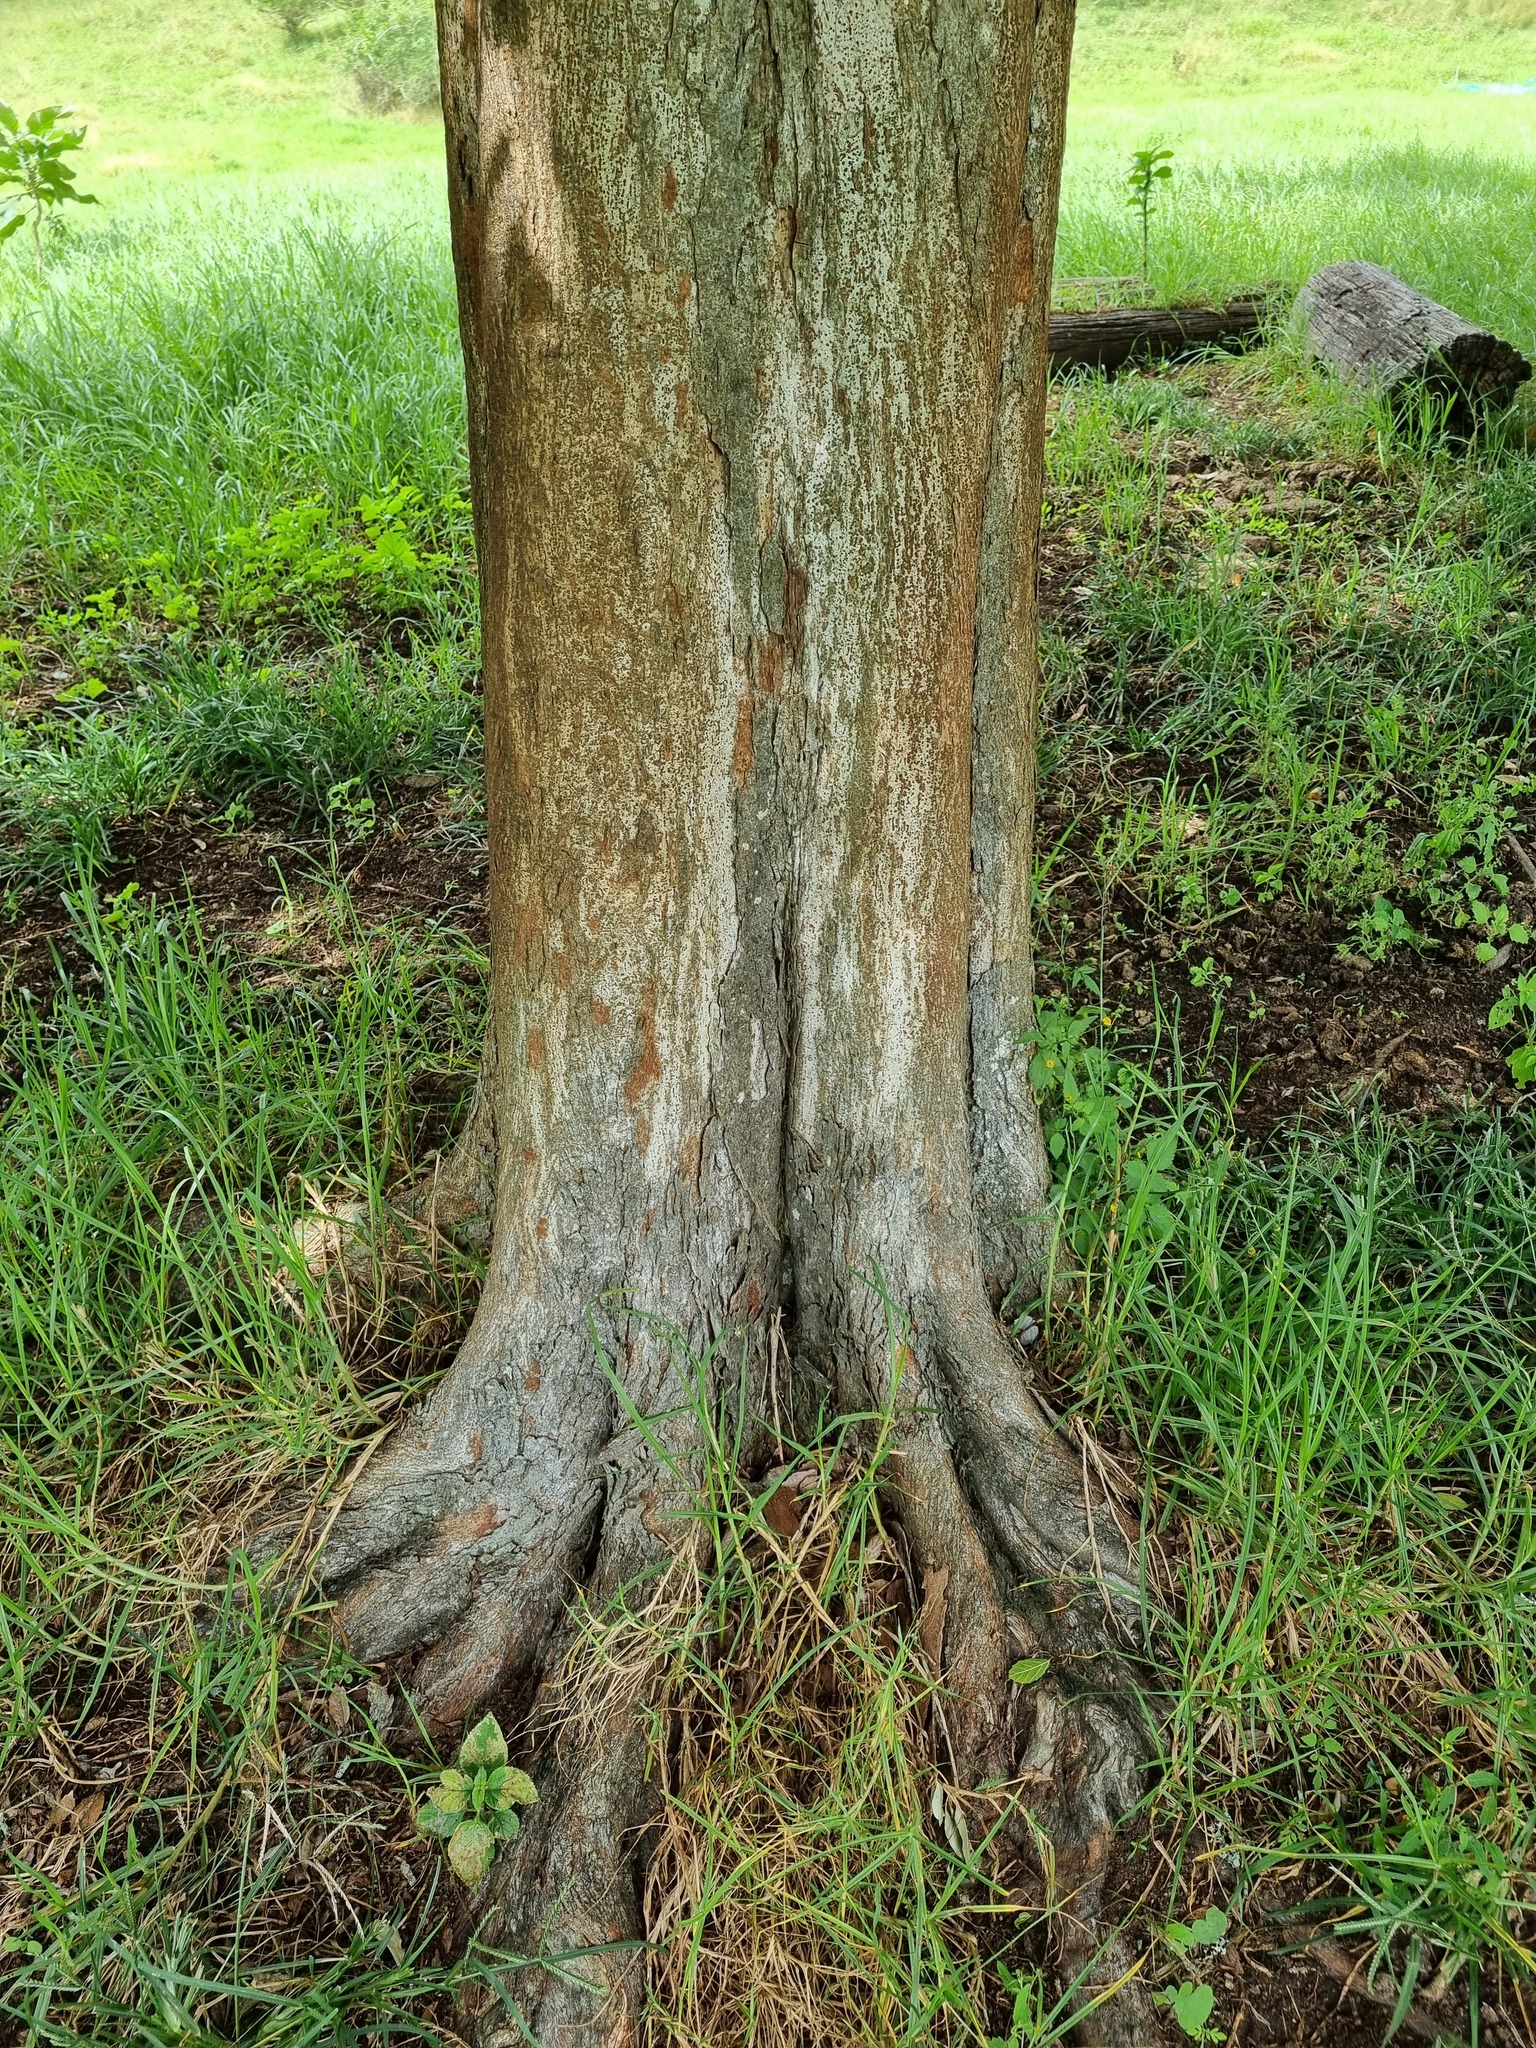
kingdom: Plantae
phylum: Tracheophyta
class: Magnoliopsida
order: Rosales
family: Cannabaceae
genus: Aphananthe
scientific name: Aphananthe philippinensis
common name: Wild holly
